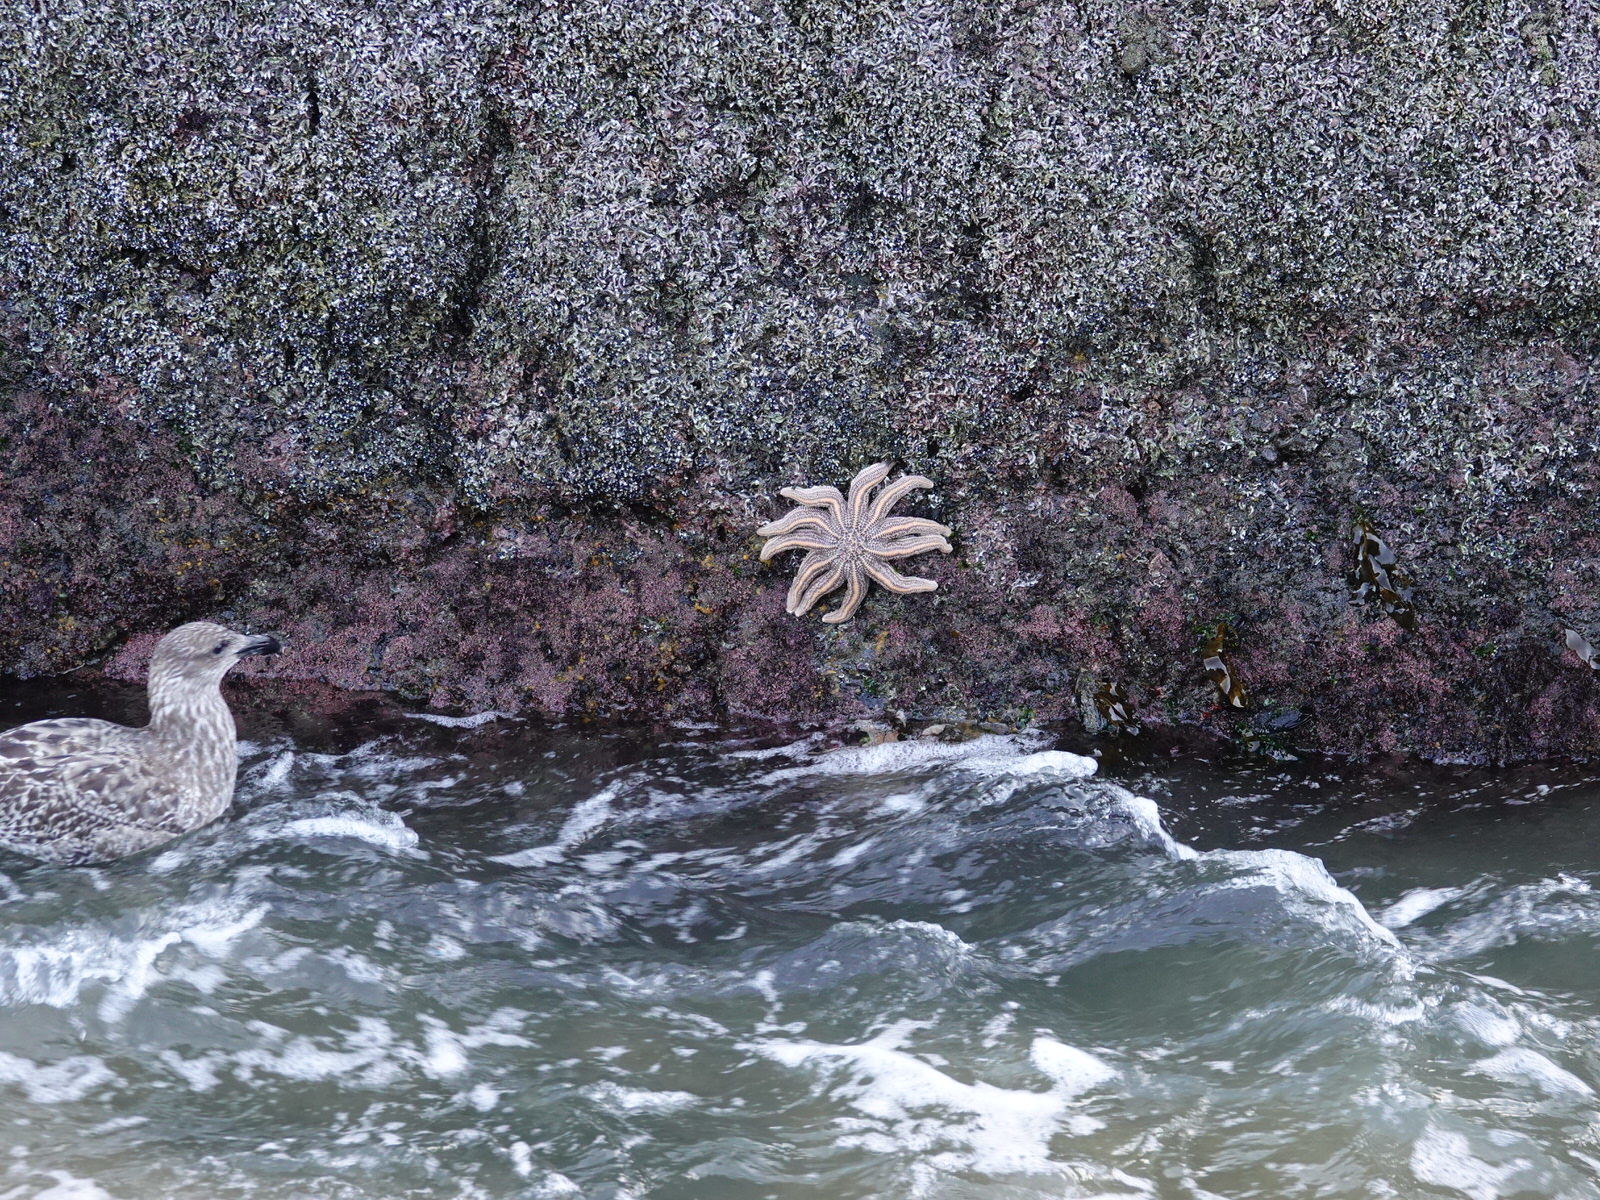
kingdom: Animalia
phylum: Echinodermata
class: Asteroidea
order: Forcipulatida
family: Stichasteridae
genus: Stichaster
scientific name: Stichaster australis
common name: Reef starfish
